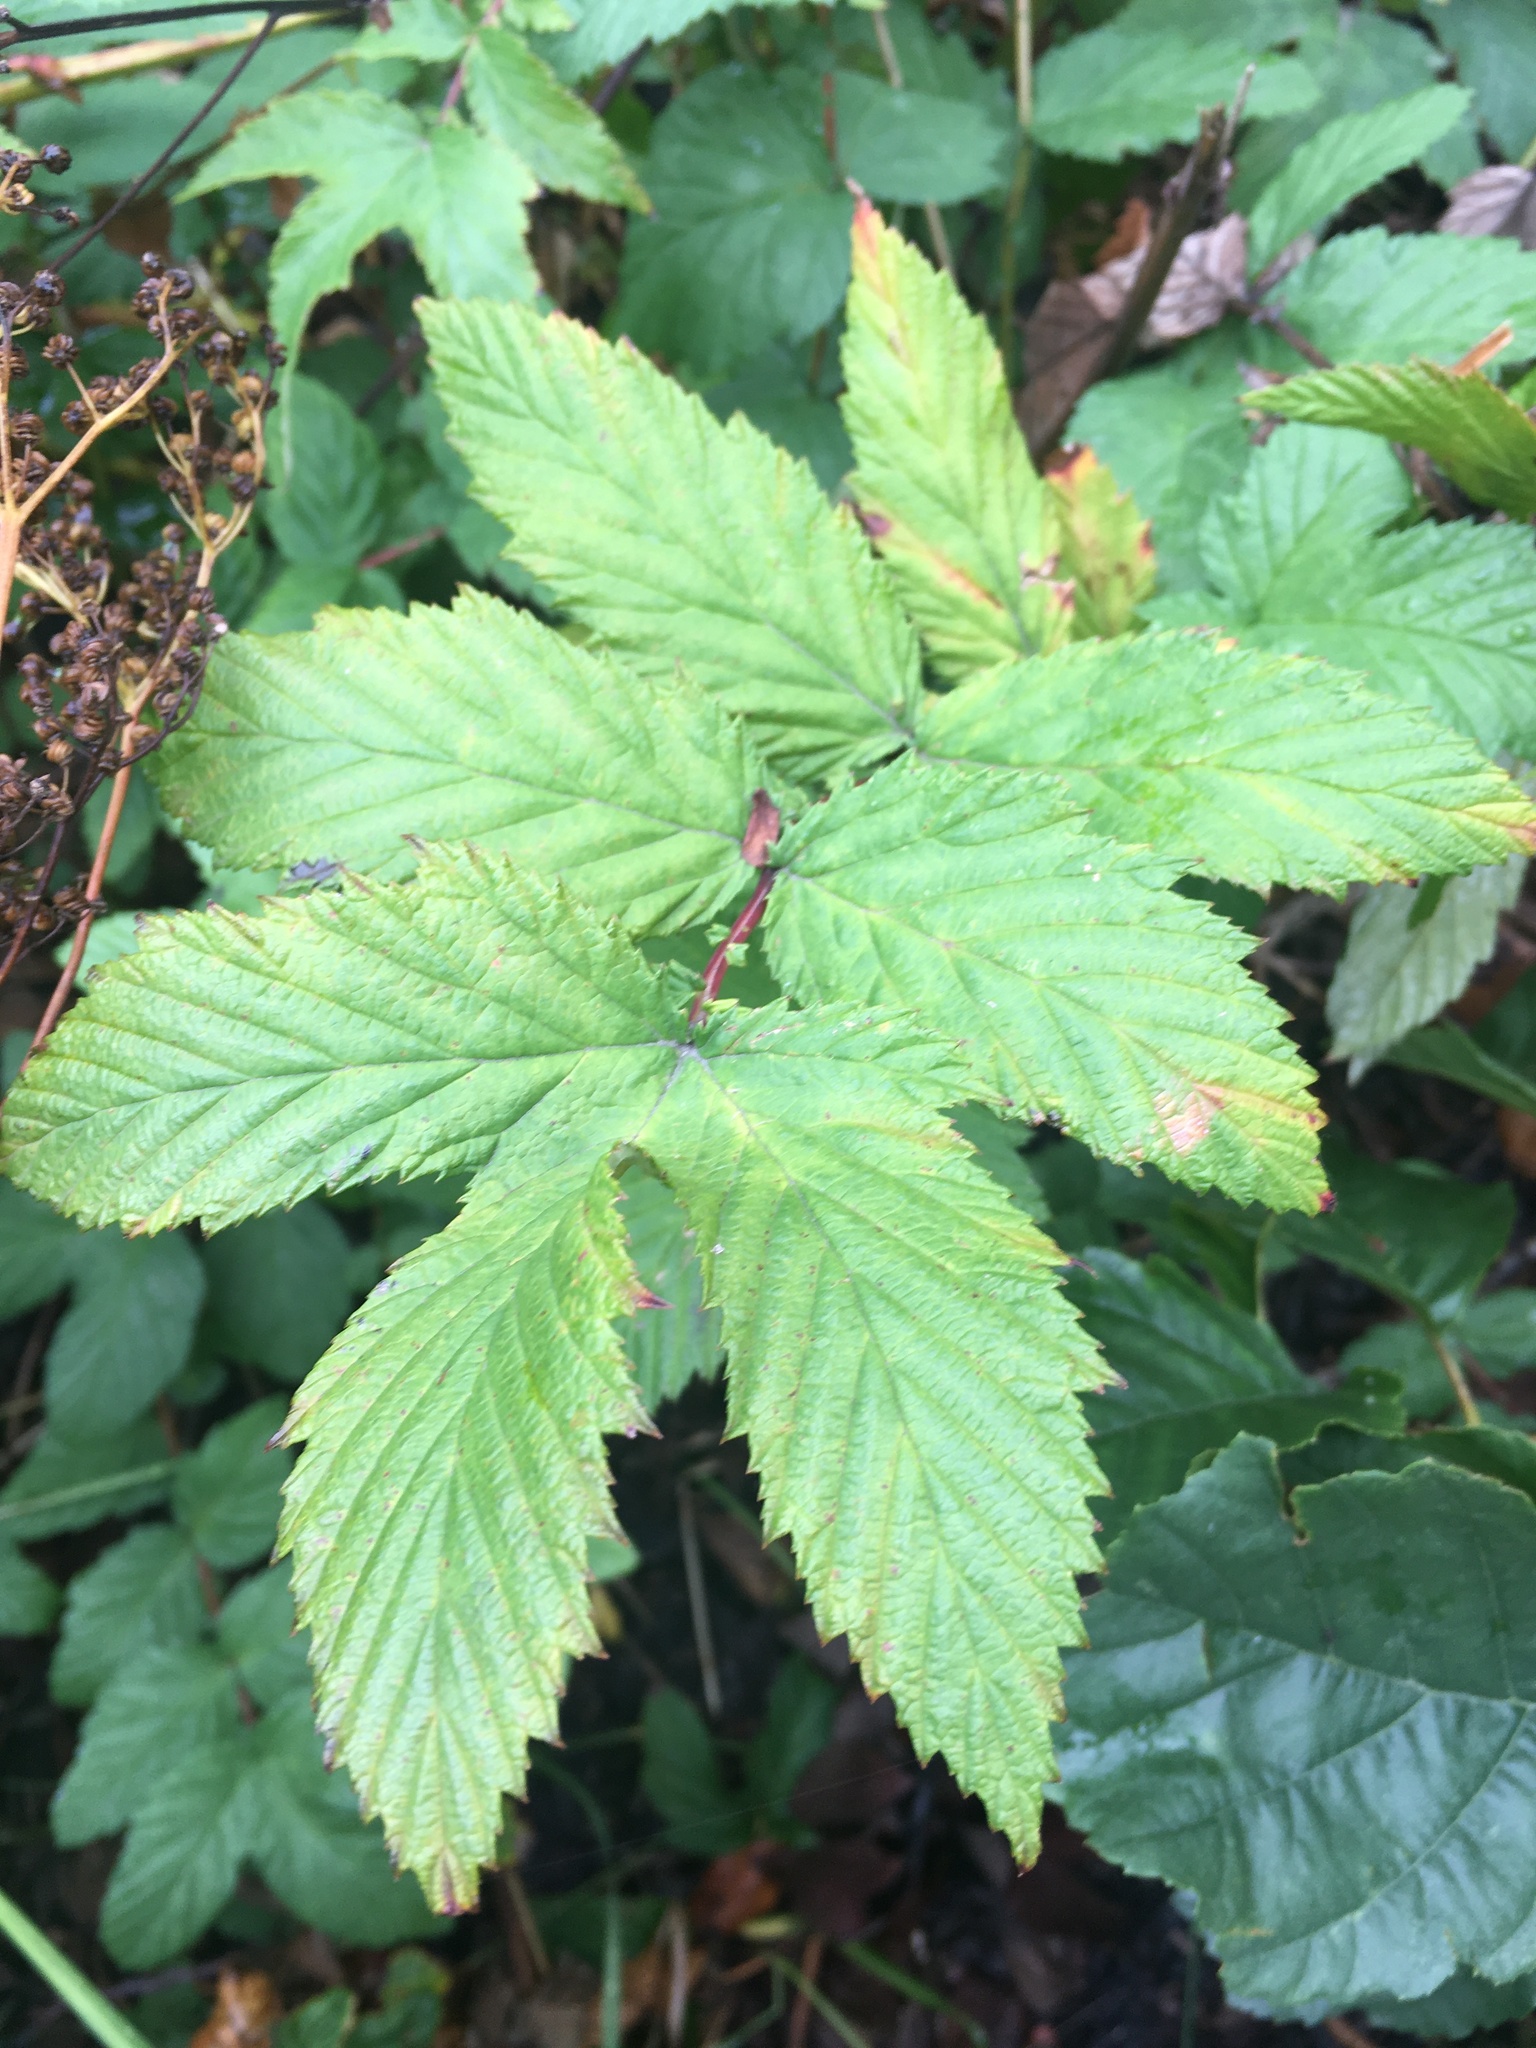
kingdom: Plantae
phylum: Tracheophyta
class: Magnoliopsida
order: Rosales
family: Rosaceae
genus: Filipendula
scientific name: Filipendula ulmaria
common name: Meadowsweet
